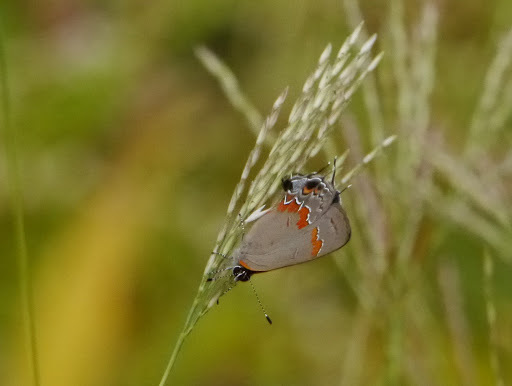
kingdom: Animalia
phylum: Arthropoda
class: Insecta
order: Lepidoptera
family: Lycaenidae
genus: Calycopis
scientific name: Calycopis cecrops
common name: Red-banded hairstreak
